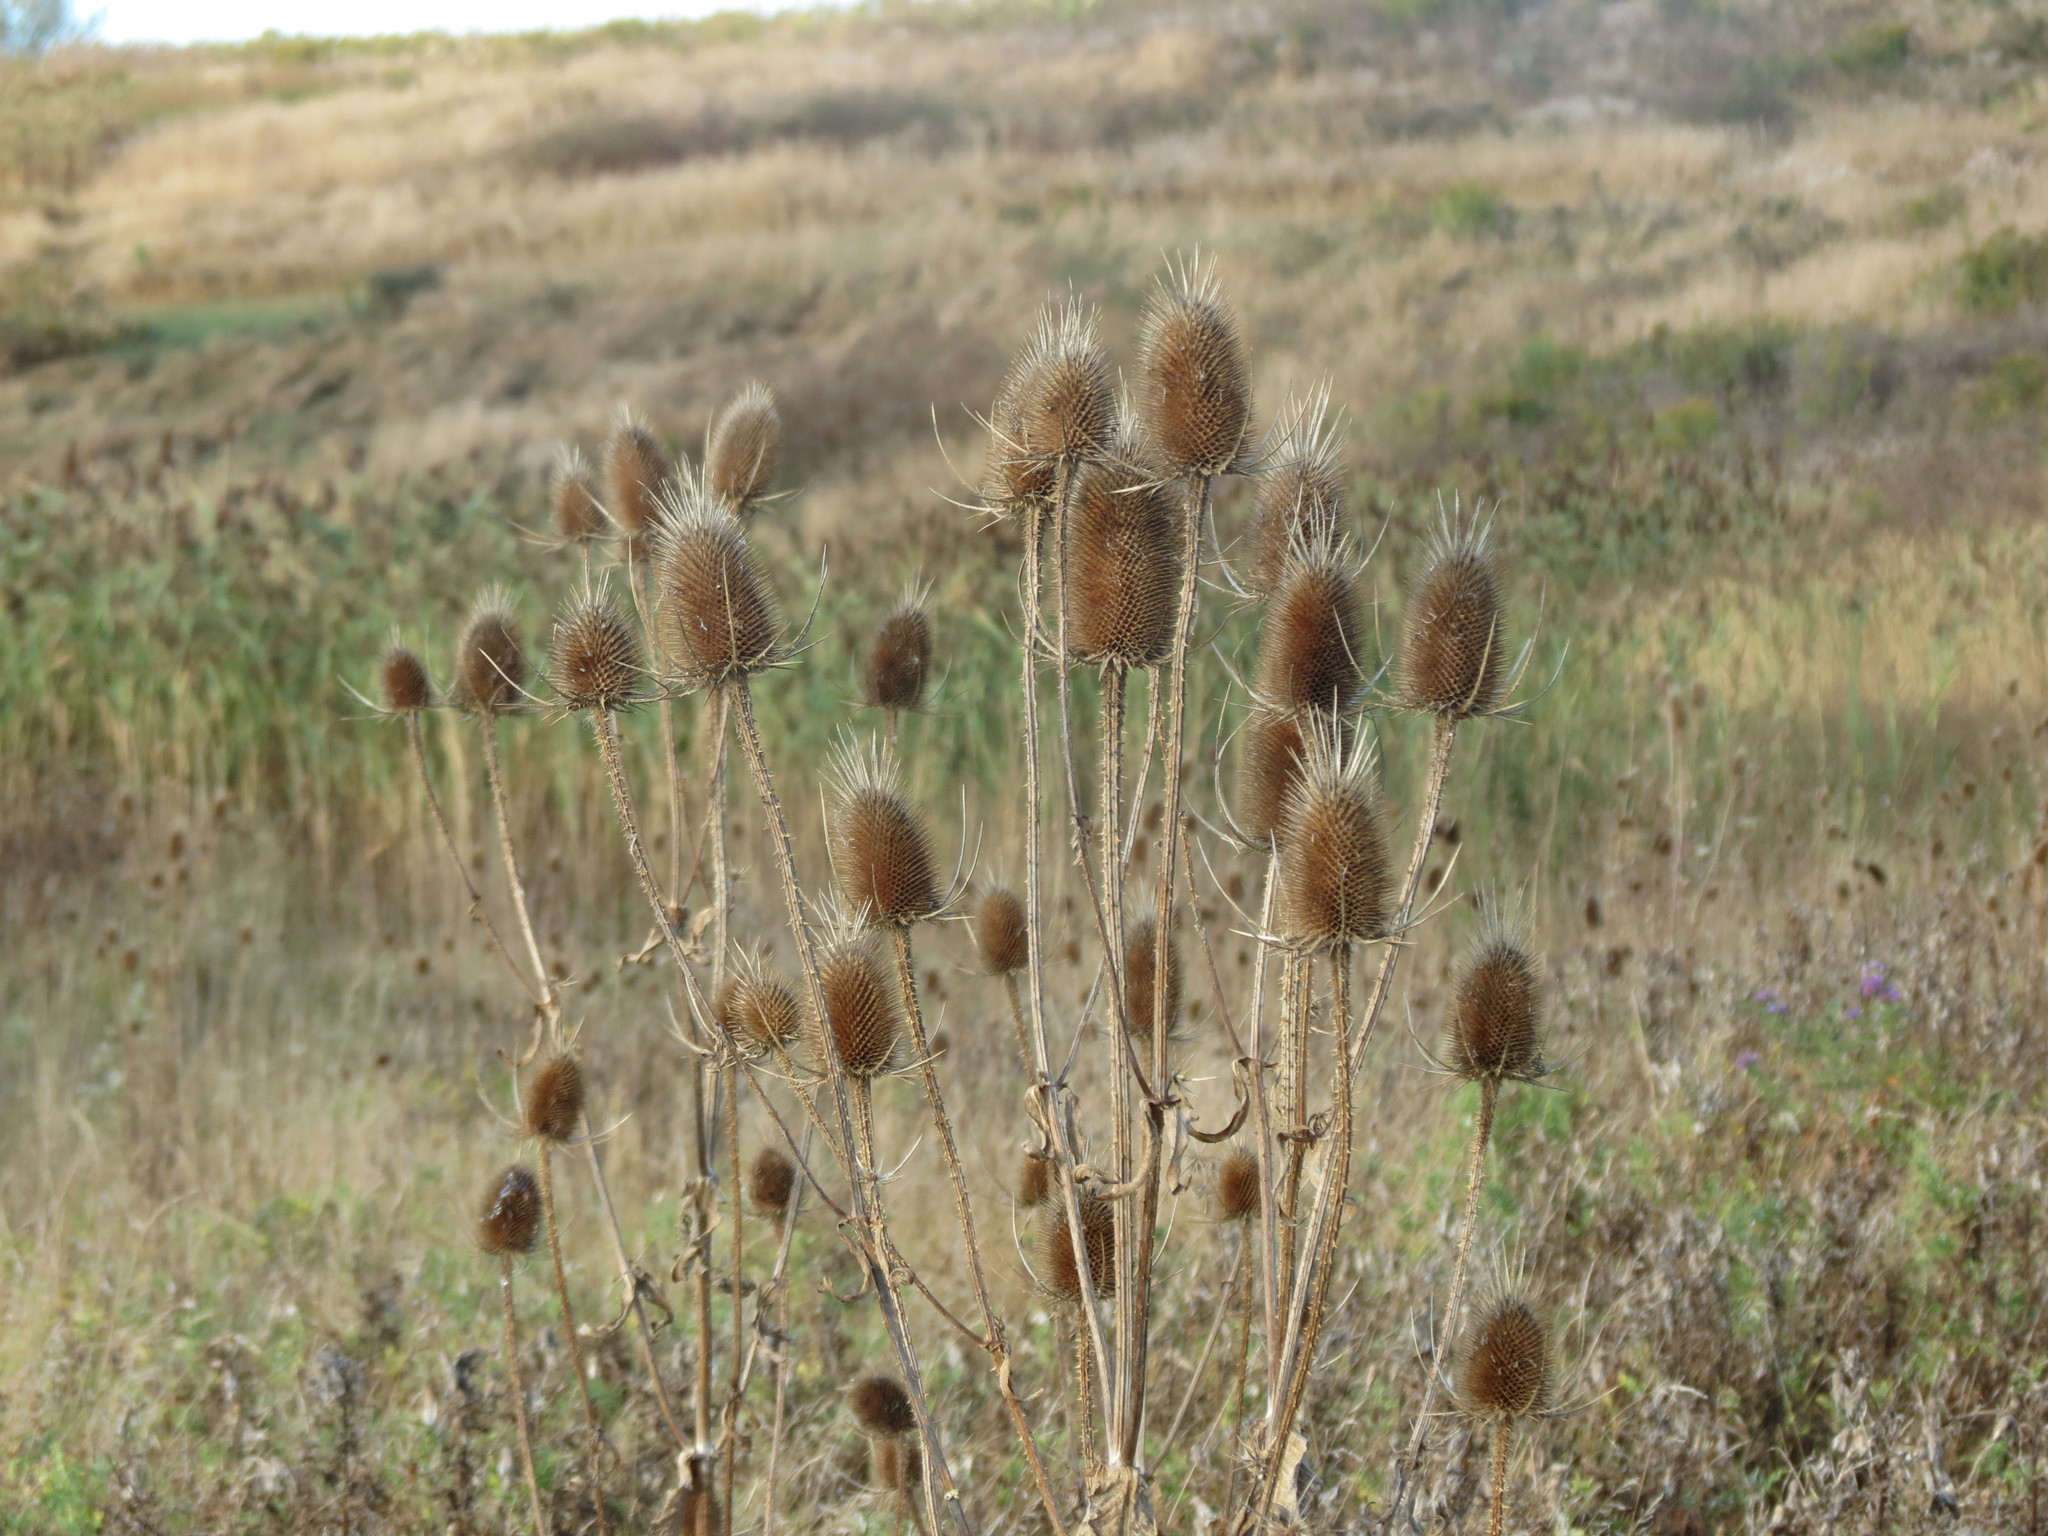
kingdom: Plantae
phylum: Tracheophyta
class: Magnoliopsida
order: Dipsacales
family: Caprifoliaceae
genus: Dipsacus
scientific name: Dipsacus fullonum
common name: Teasel
